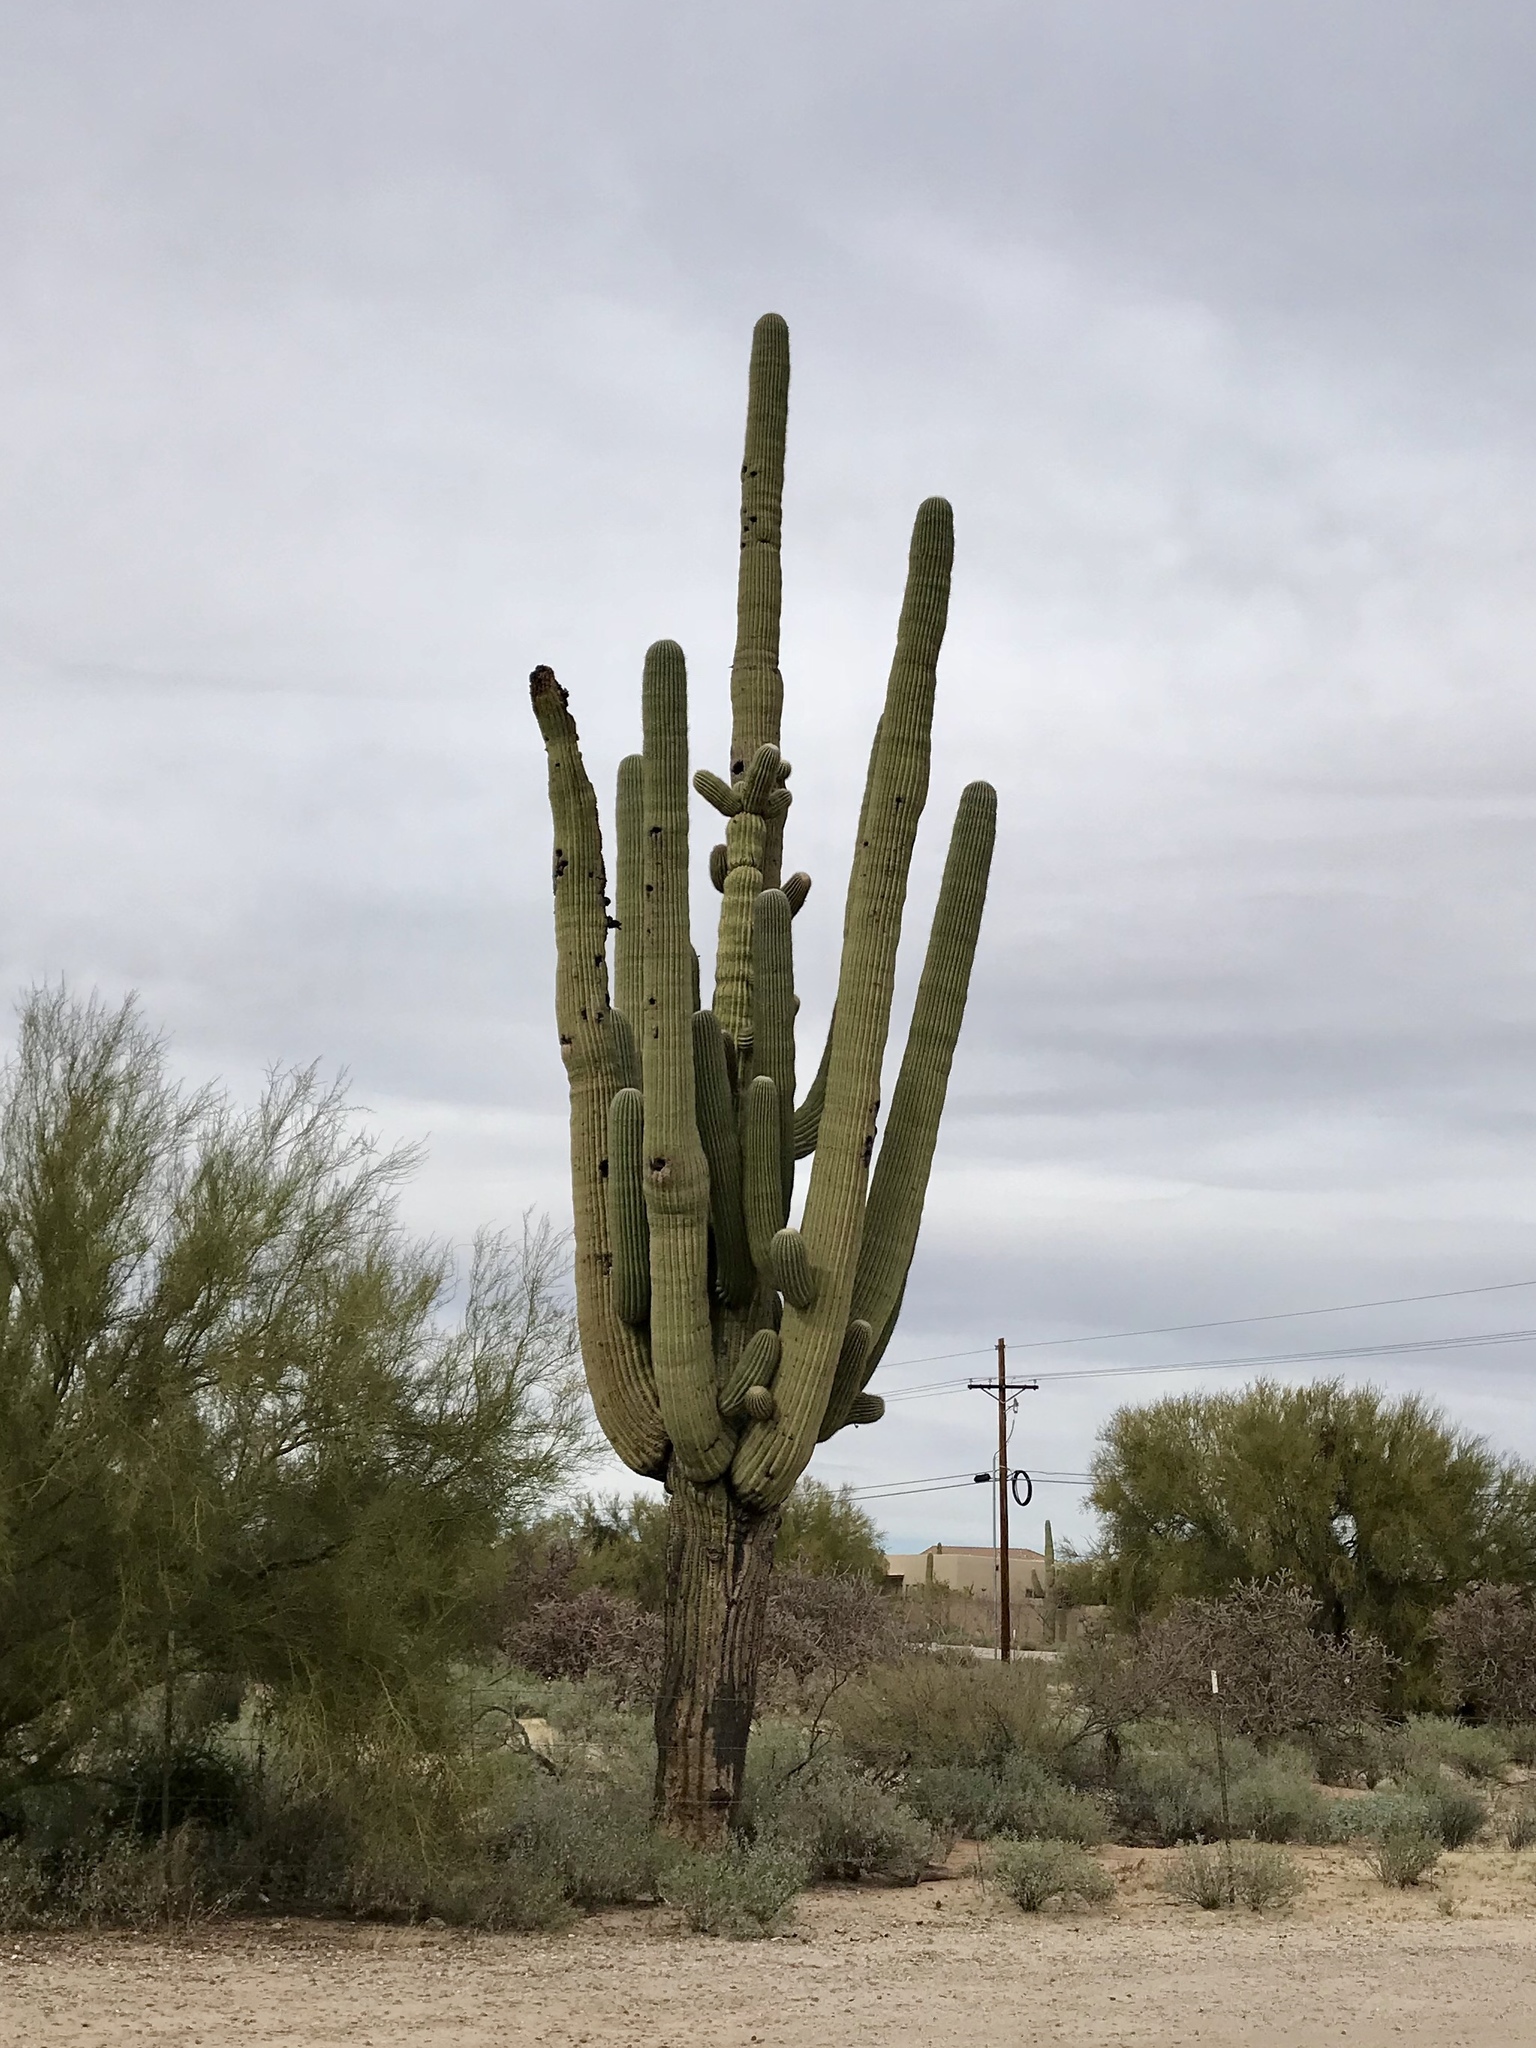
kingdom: Plantae
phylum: Tracheophyta
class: Magnoliopsida
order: Caryophyllales
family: Cactaceae
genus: Carnegiea
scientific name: Carnegiea gigantea
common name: Saguaro
